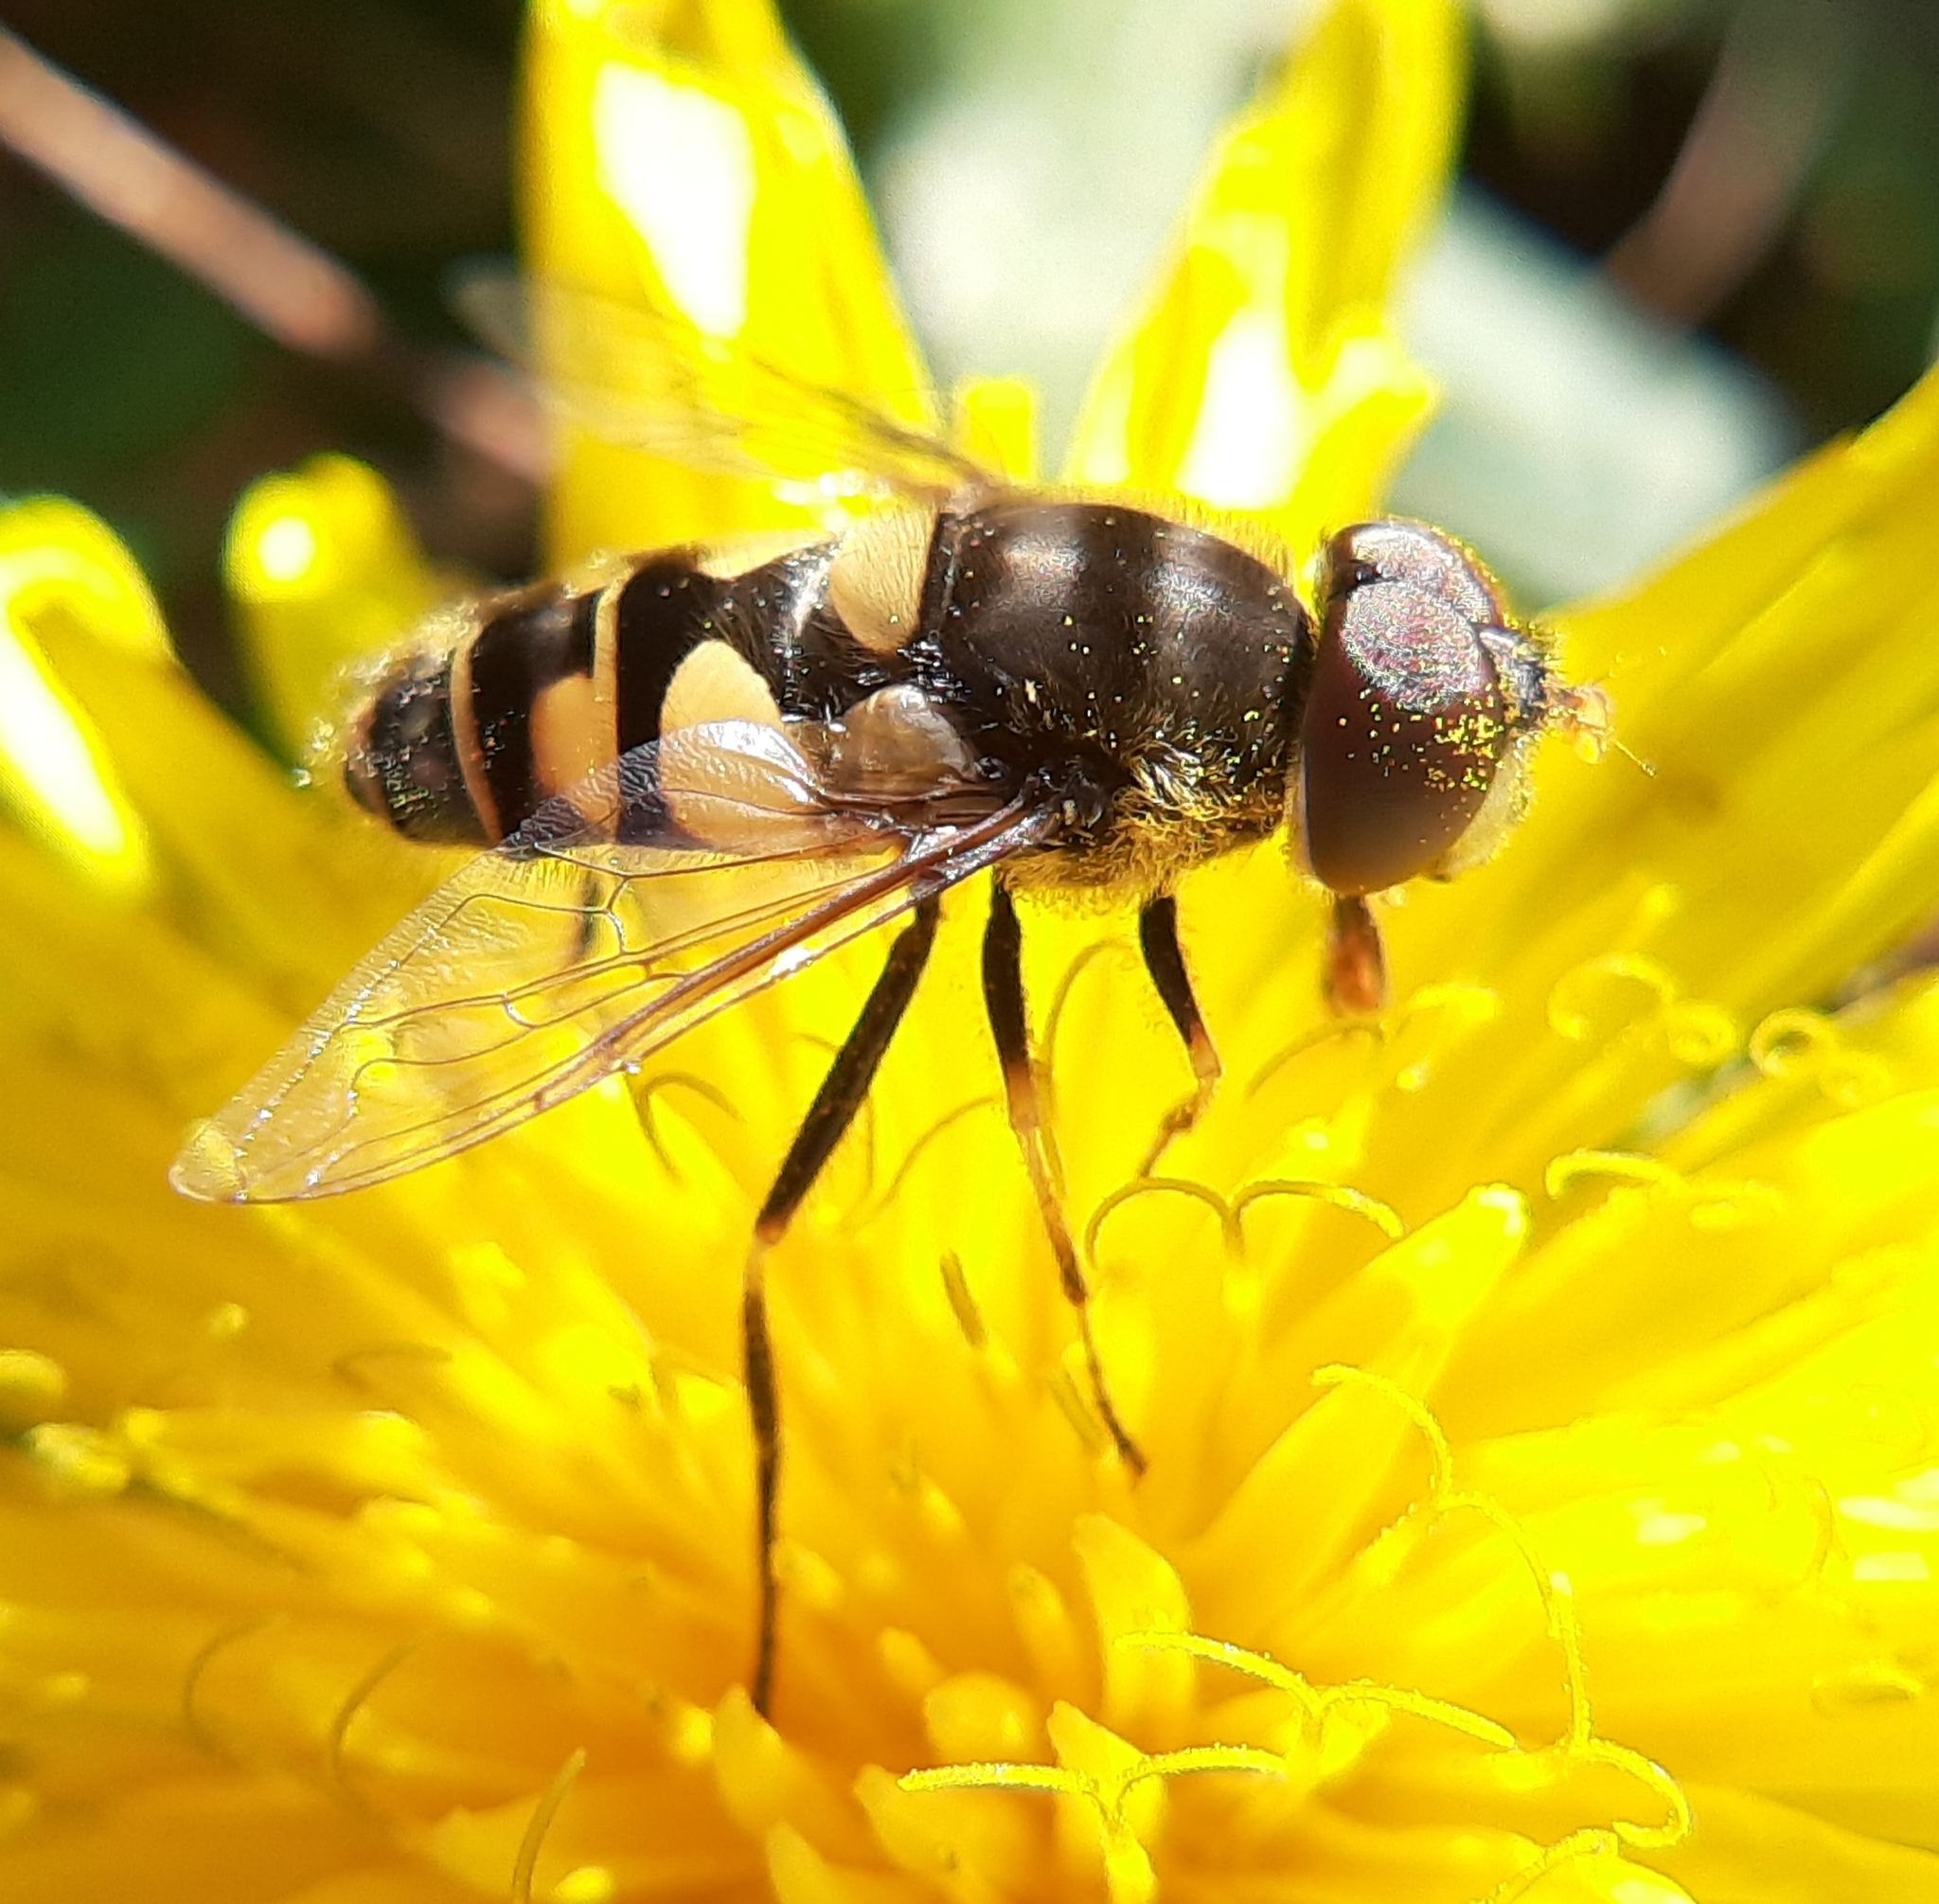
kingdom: Animalia
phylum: Arthropoda
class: Insecta
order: Diptera
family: Syrphidae
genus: Eristalis
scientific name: Eristalis transversa
